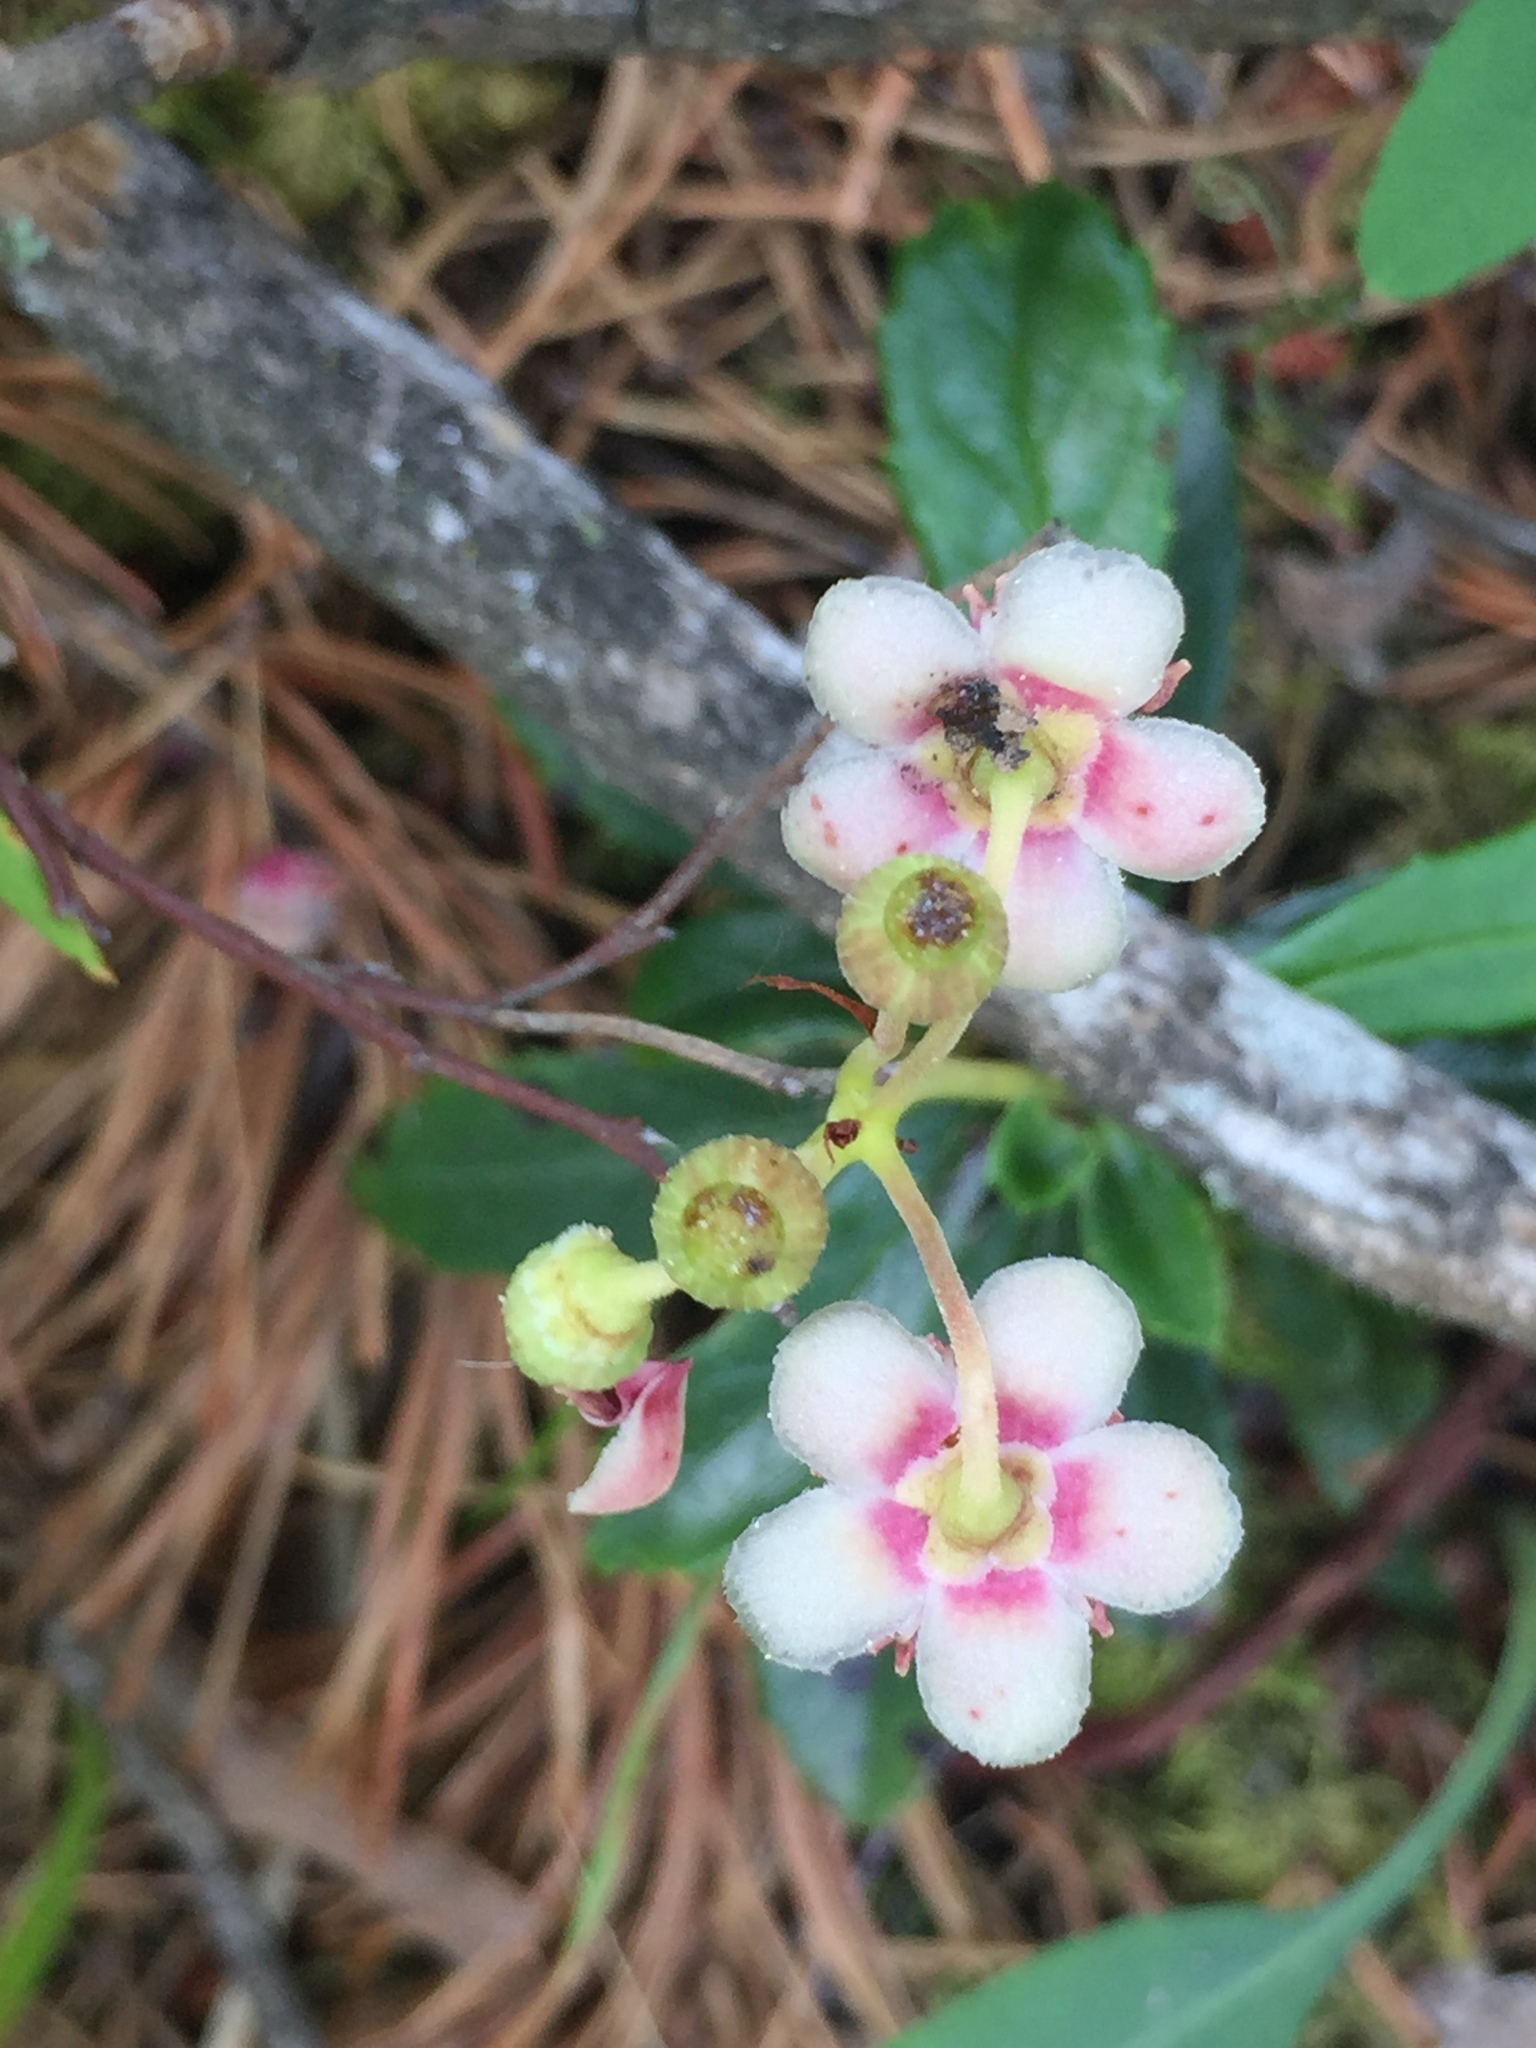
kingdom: Plantae
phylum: Tracheophyta
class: Magnoliopsida
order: Ericales
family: Ericaceae
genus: Chimaphila
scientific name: Chimaphila umbellata
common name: Pipsissewa
